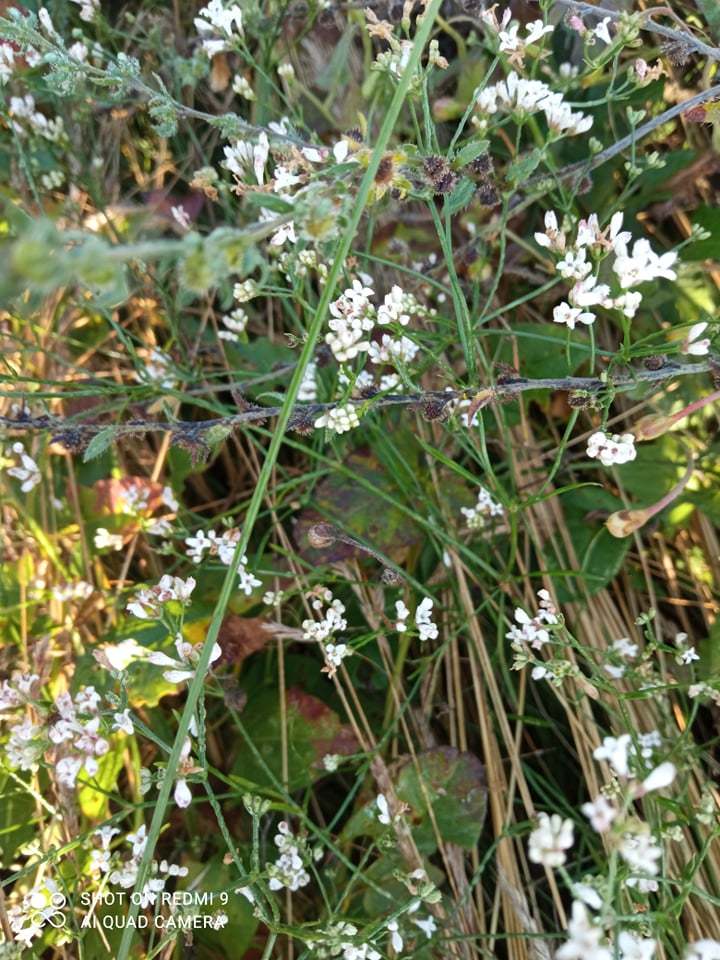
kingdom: Plantae
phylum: Tracheophyta
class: Magnoliopsida
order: Gentianales
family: Rubiaceae
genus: Cynanchica
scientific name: Cynanchica pyrenaica
